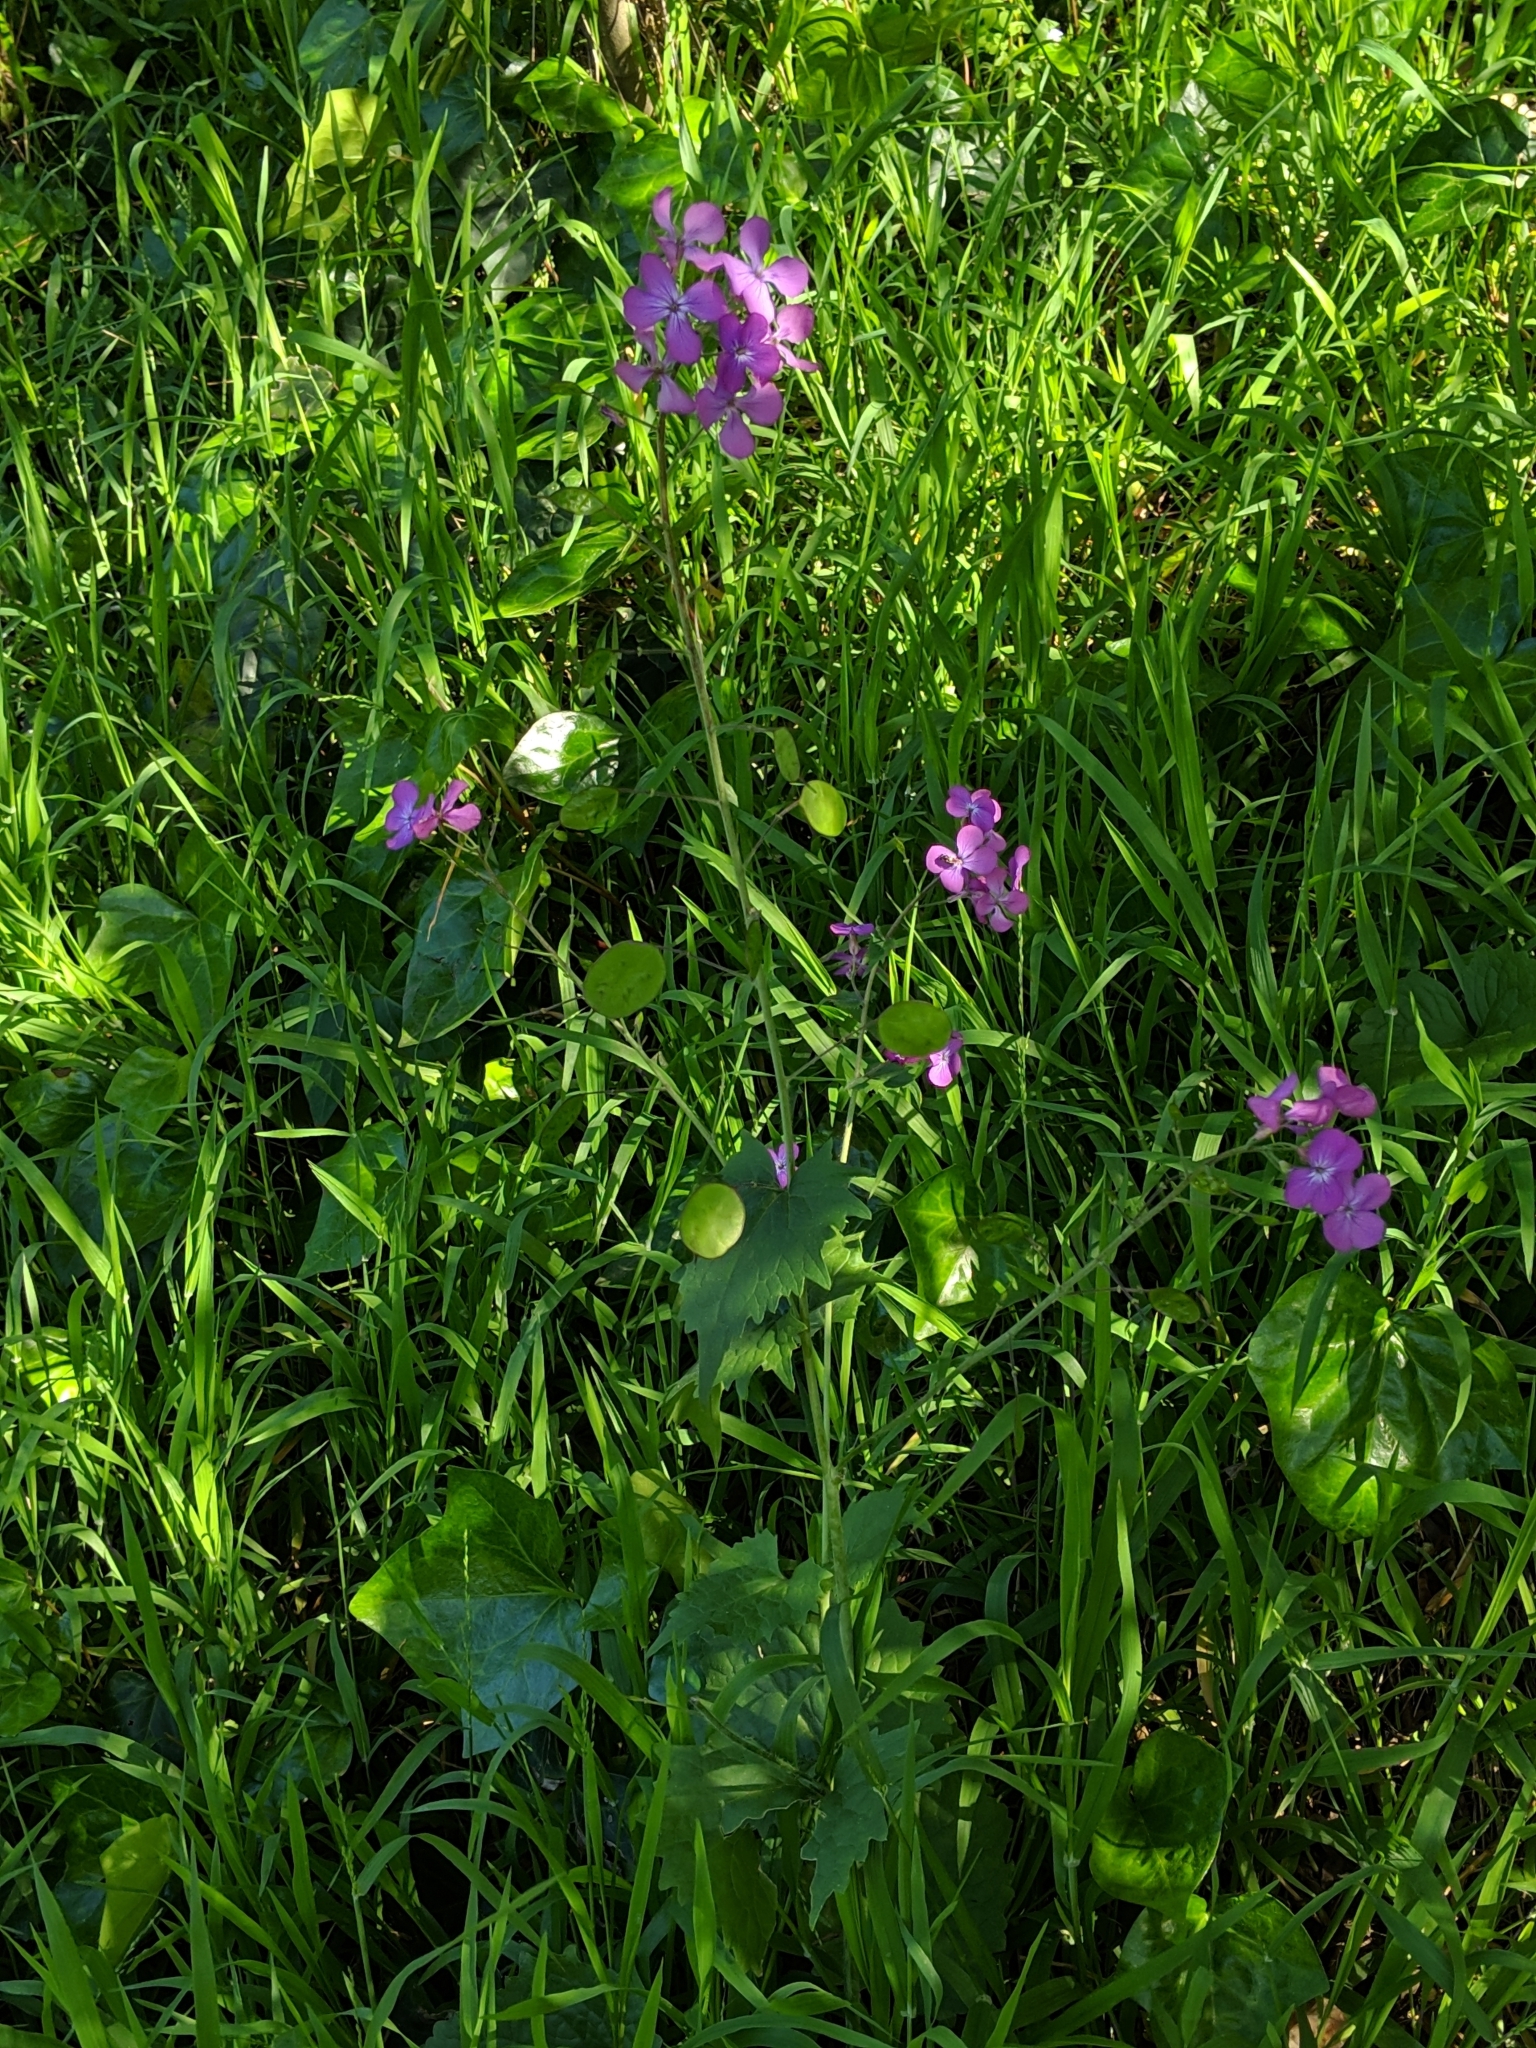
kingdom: Plantae
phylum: Tracheophyta
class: Magnoliopsida
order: Brassicales
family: Brassicaceae
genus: Lunaria
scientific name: Lunaria annua
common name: Honesty
